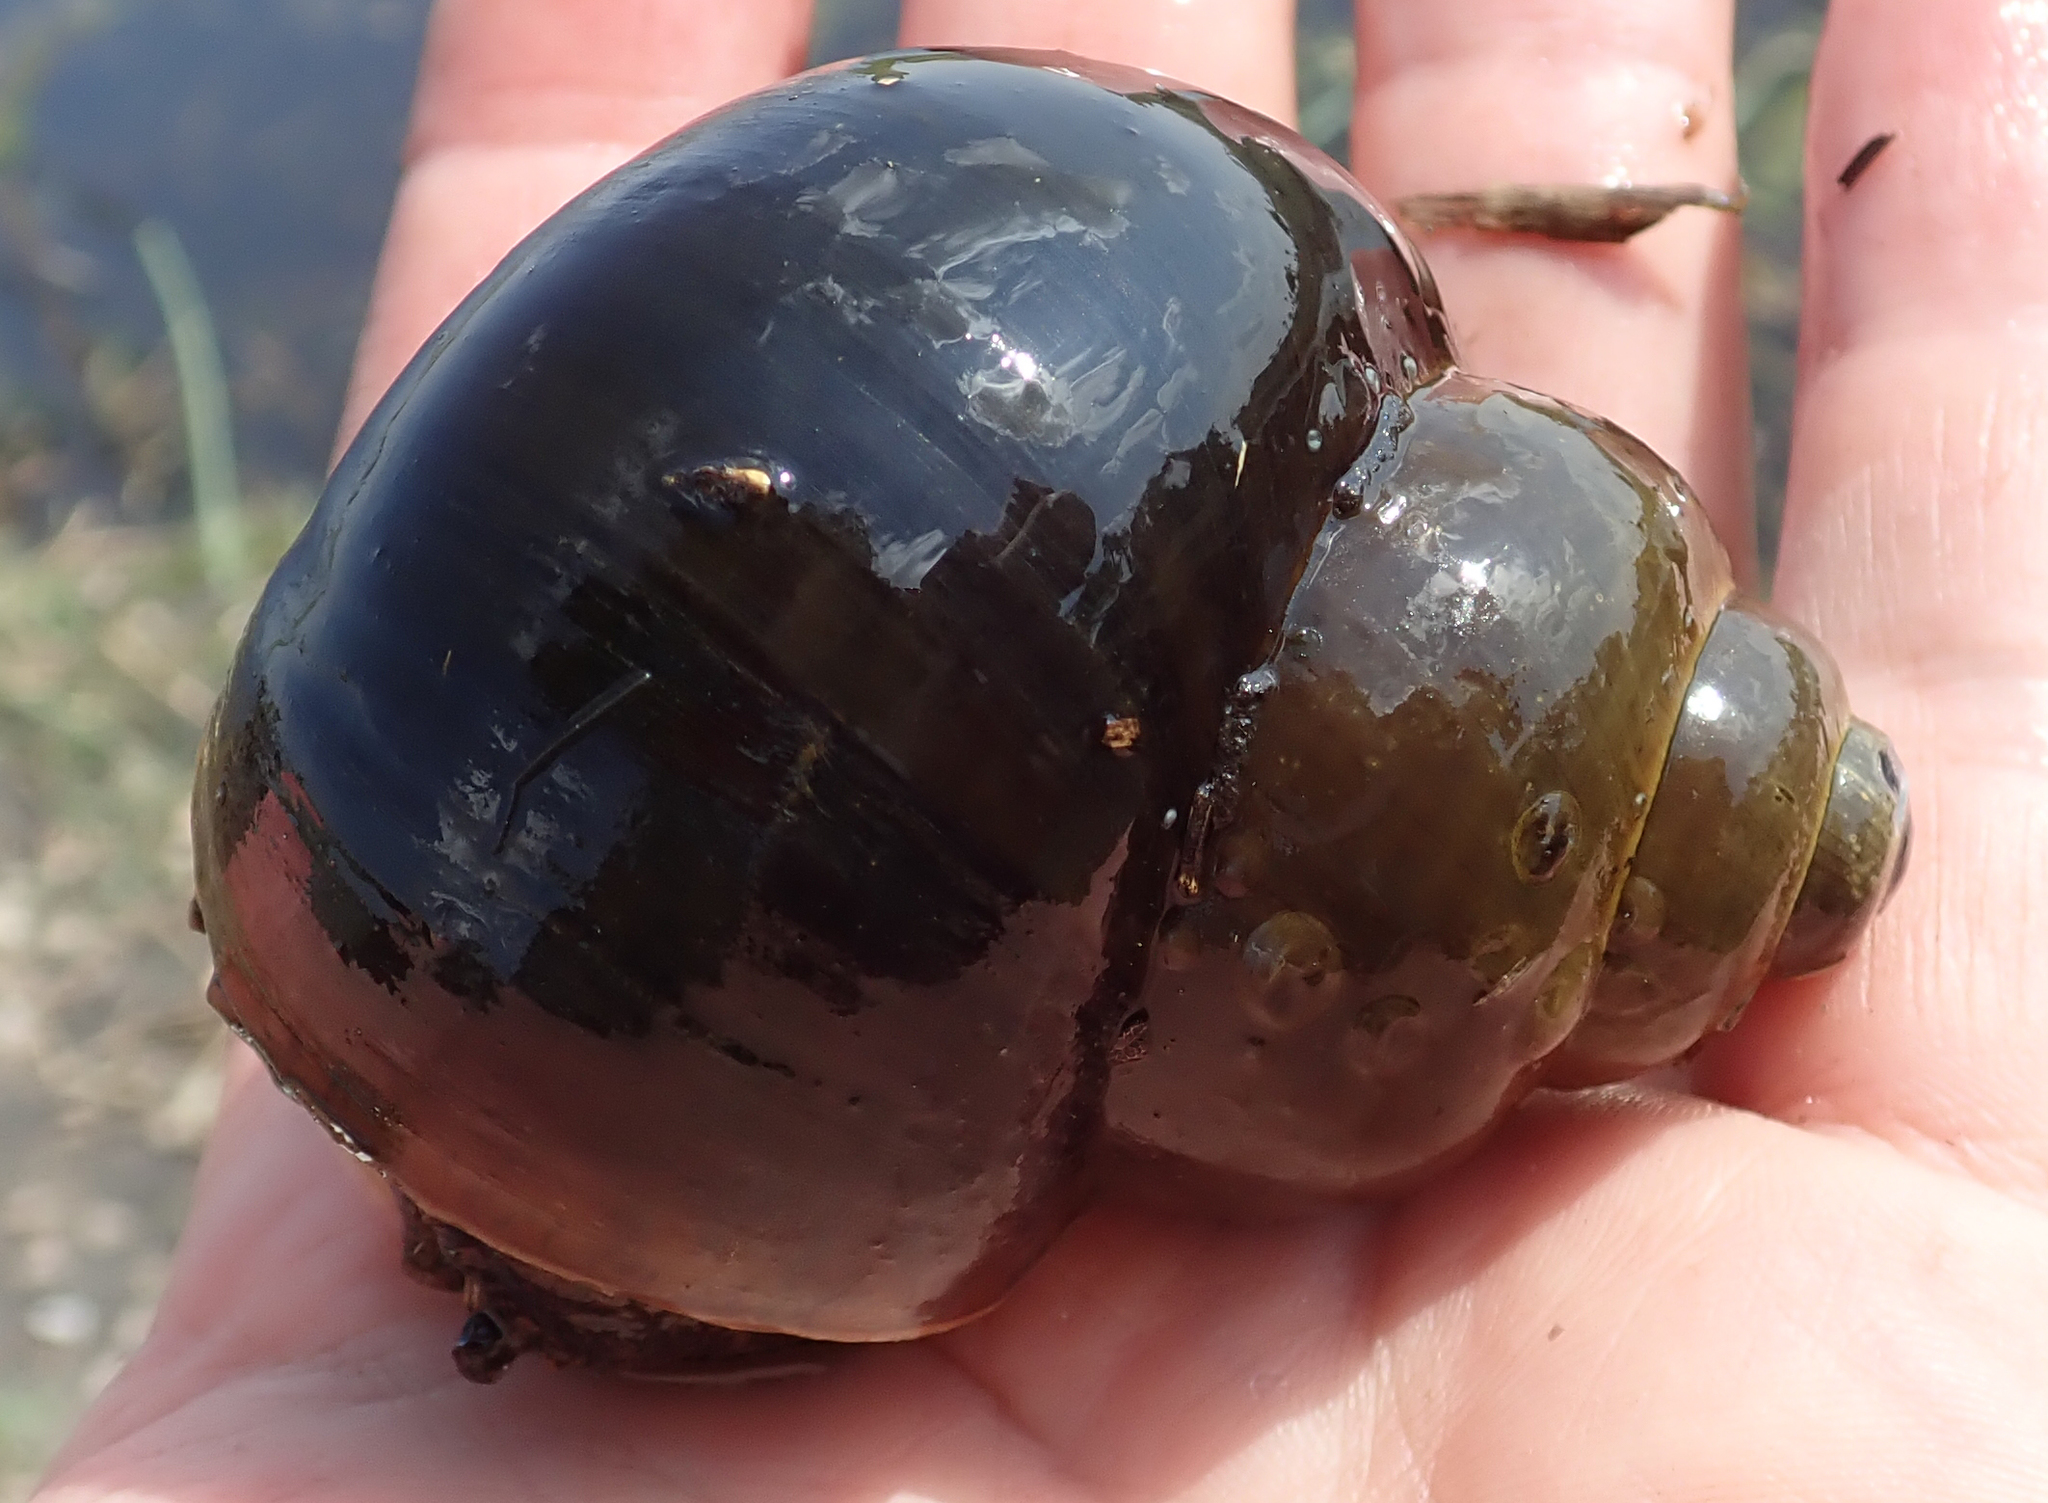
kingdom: Animalia
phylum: Mollusca
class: Gastropoda
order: Architaenioglossa
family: Ampullariidae
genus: Lanistes
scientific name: Lanistes ovum
